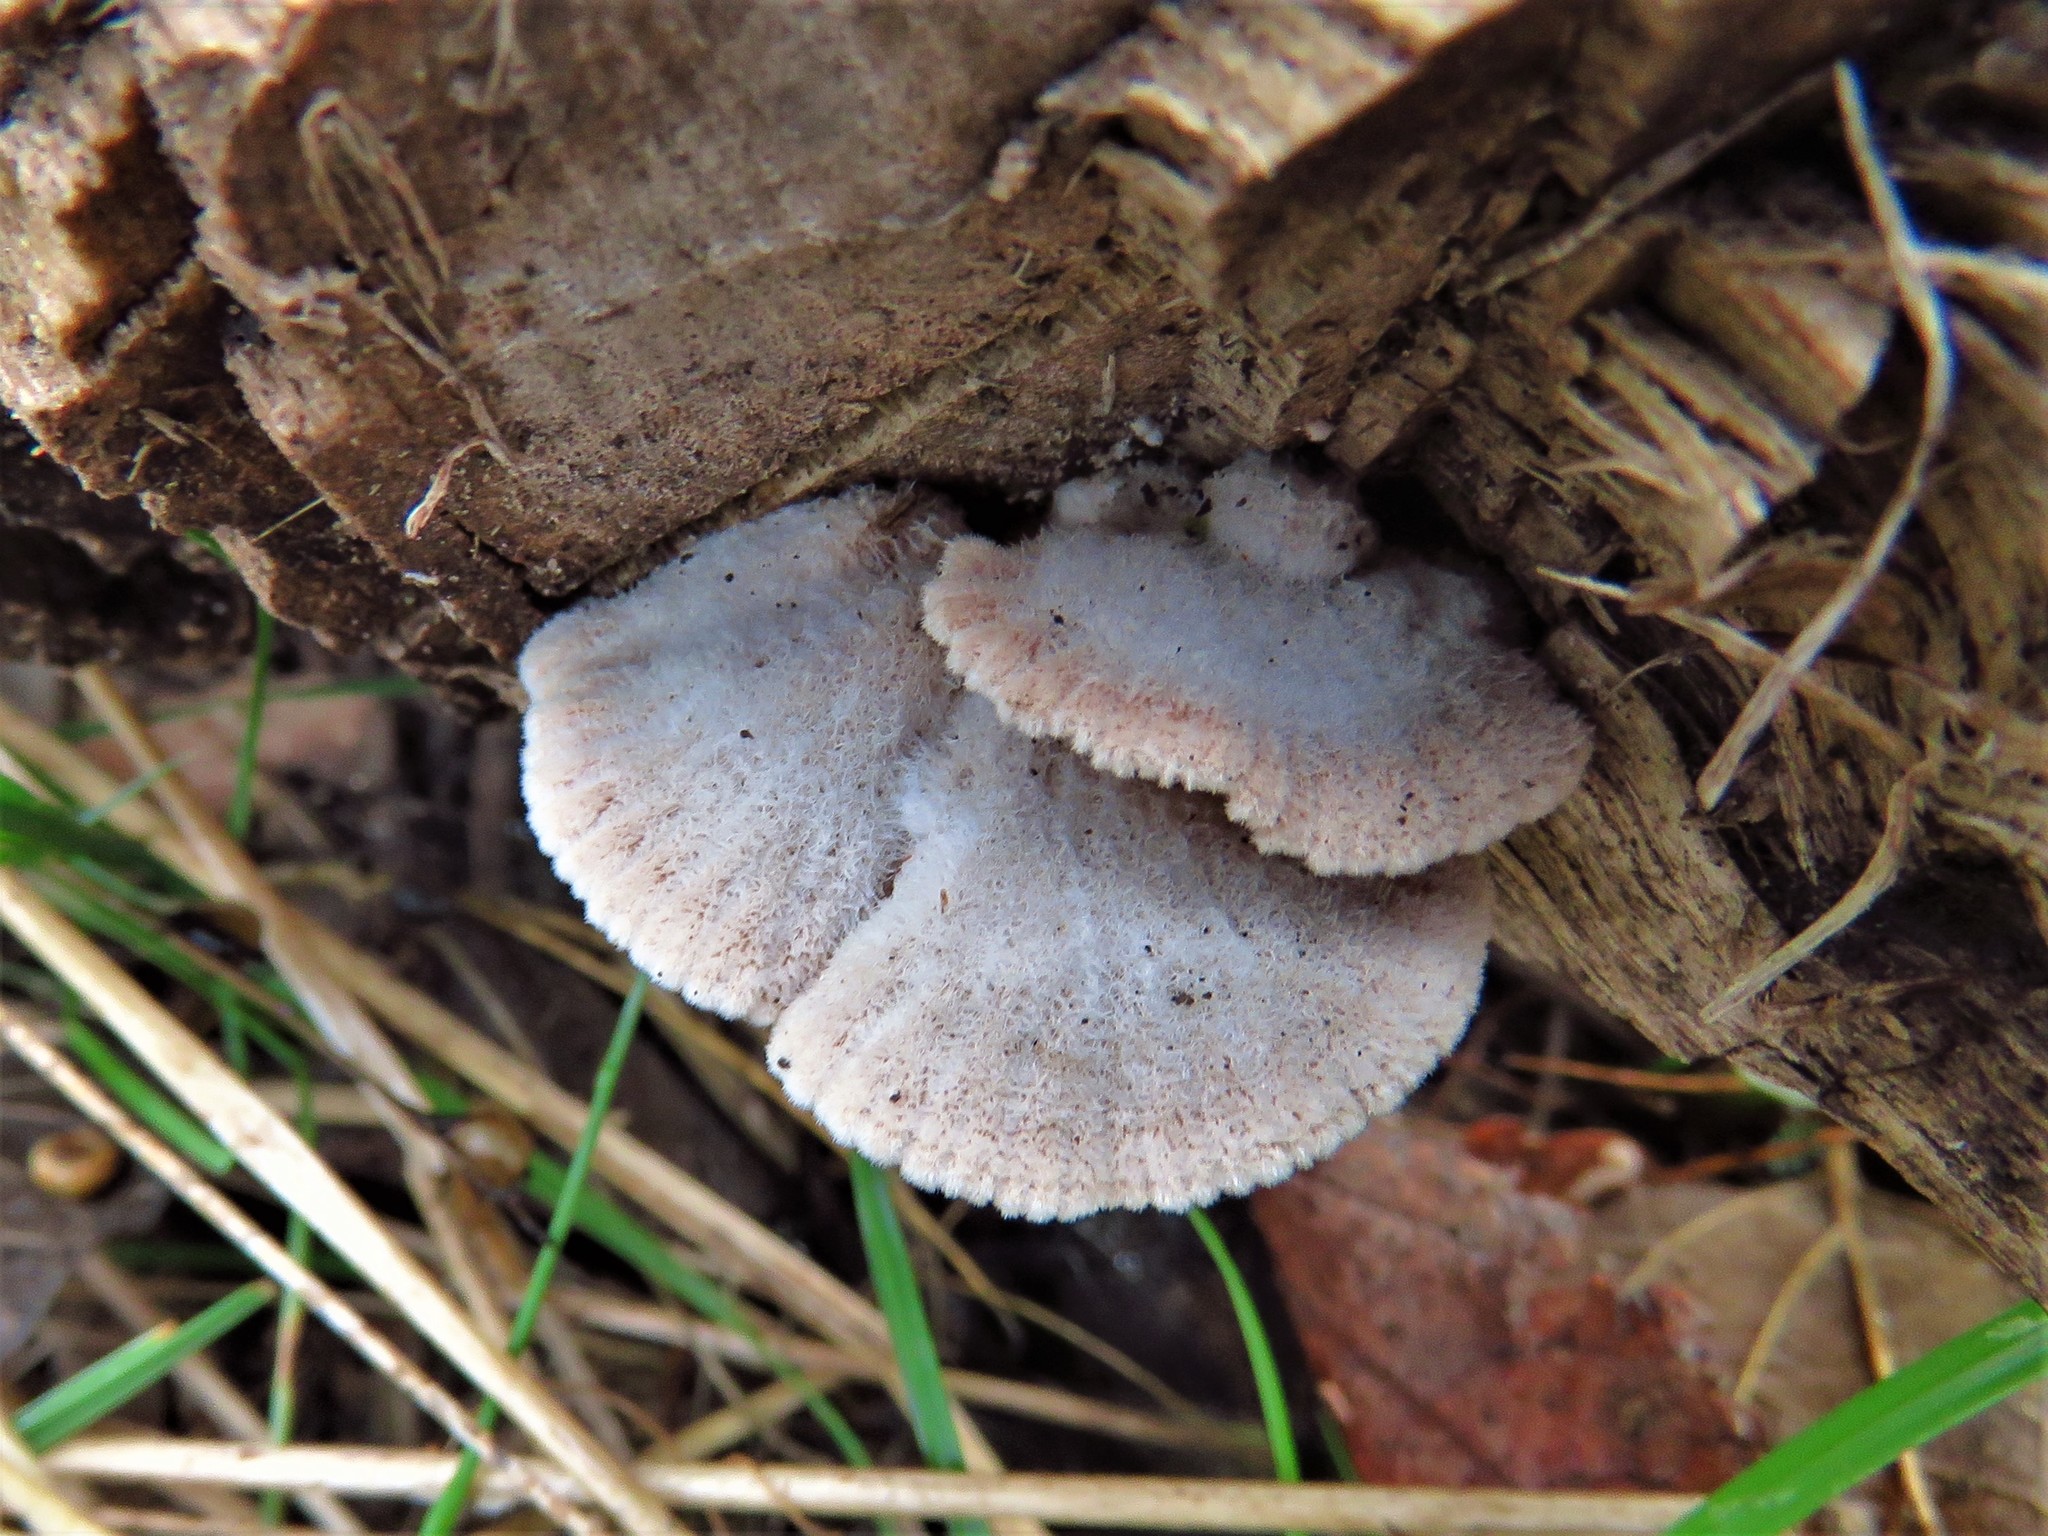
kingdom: Fungi
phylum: Basidiomycota
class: Agaricomycetes
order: Agaricales
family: Schizophyllaceae
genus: Schizophyllum
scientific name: Schizophyllum commune
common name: Common porecrust
